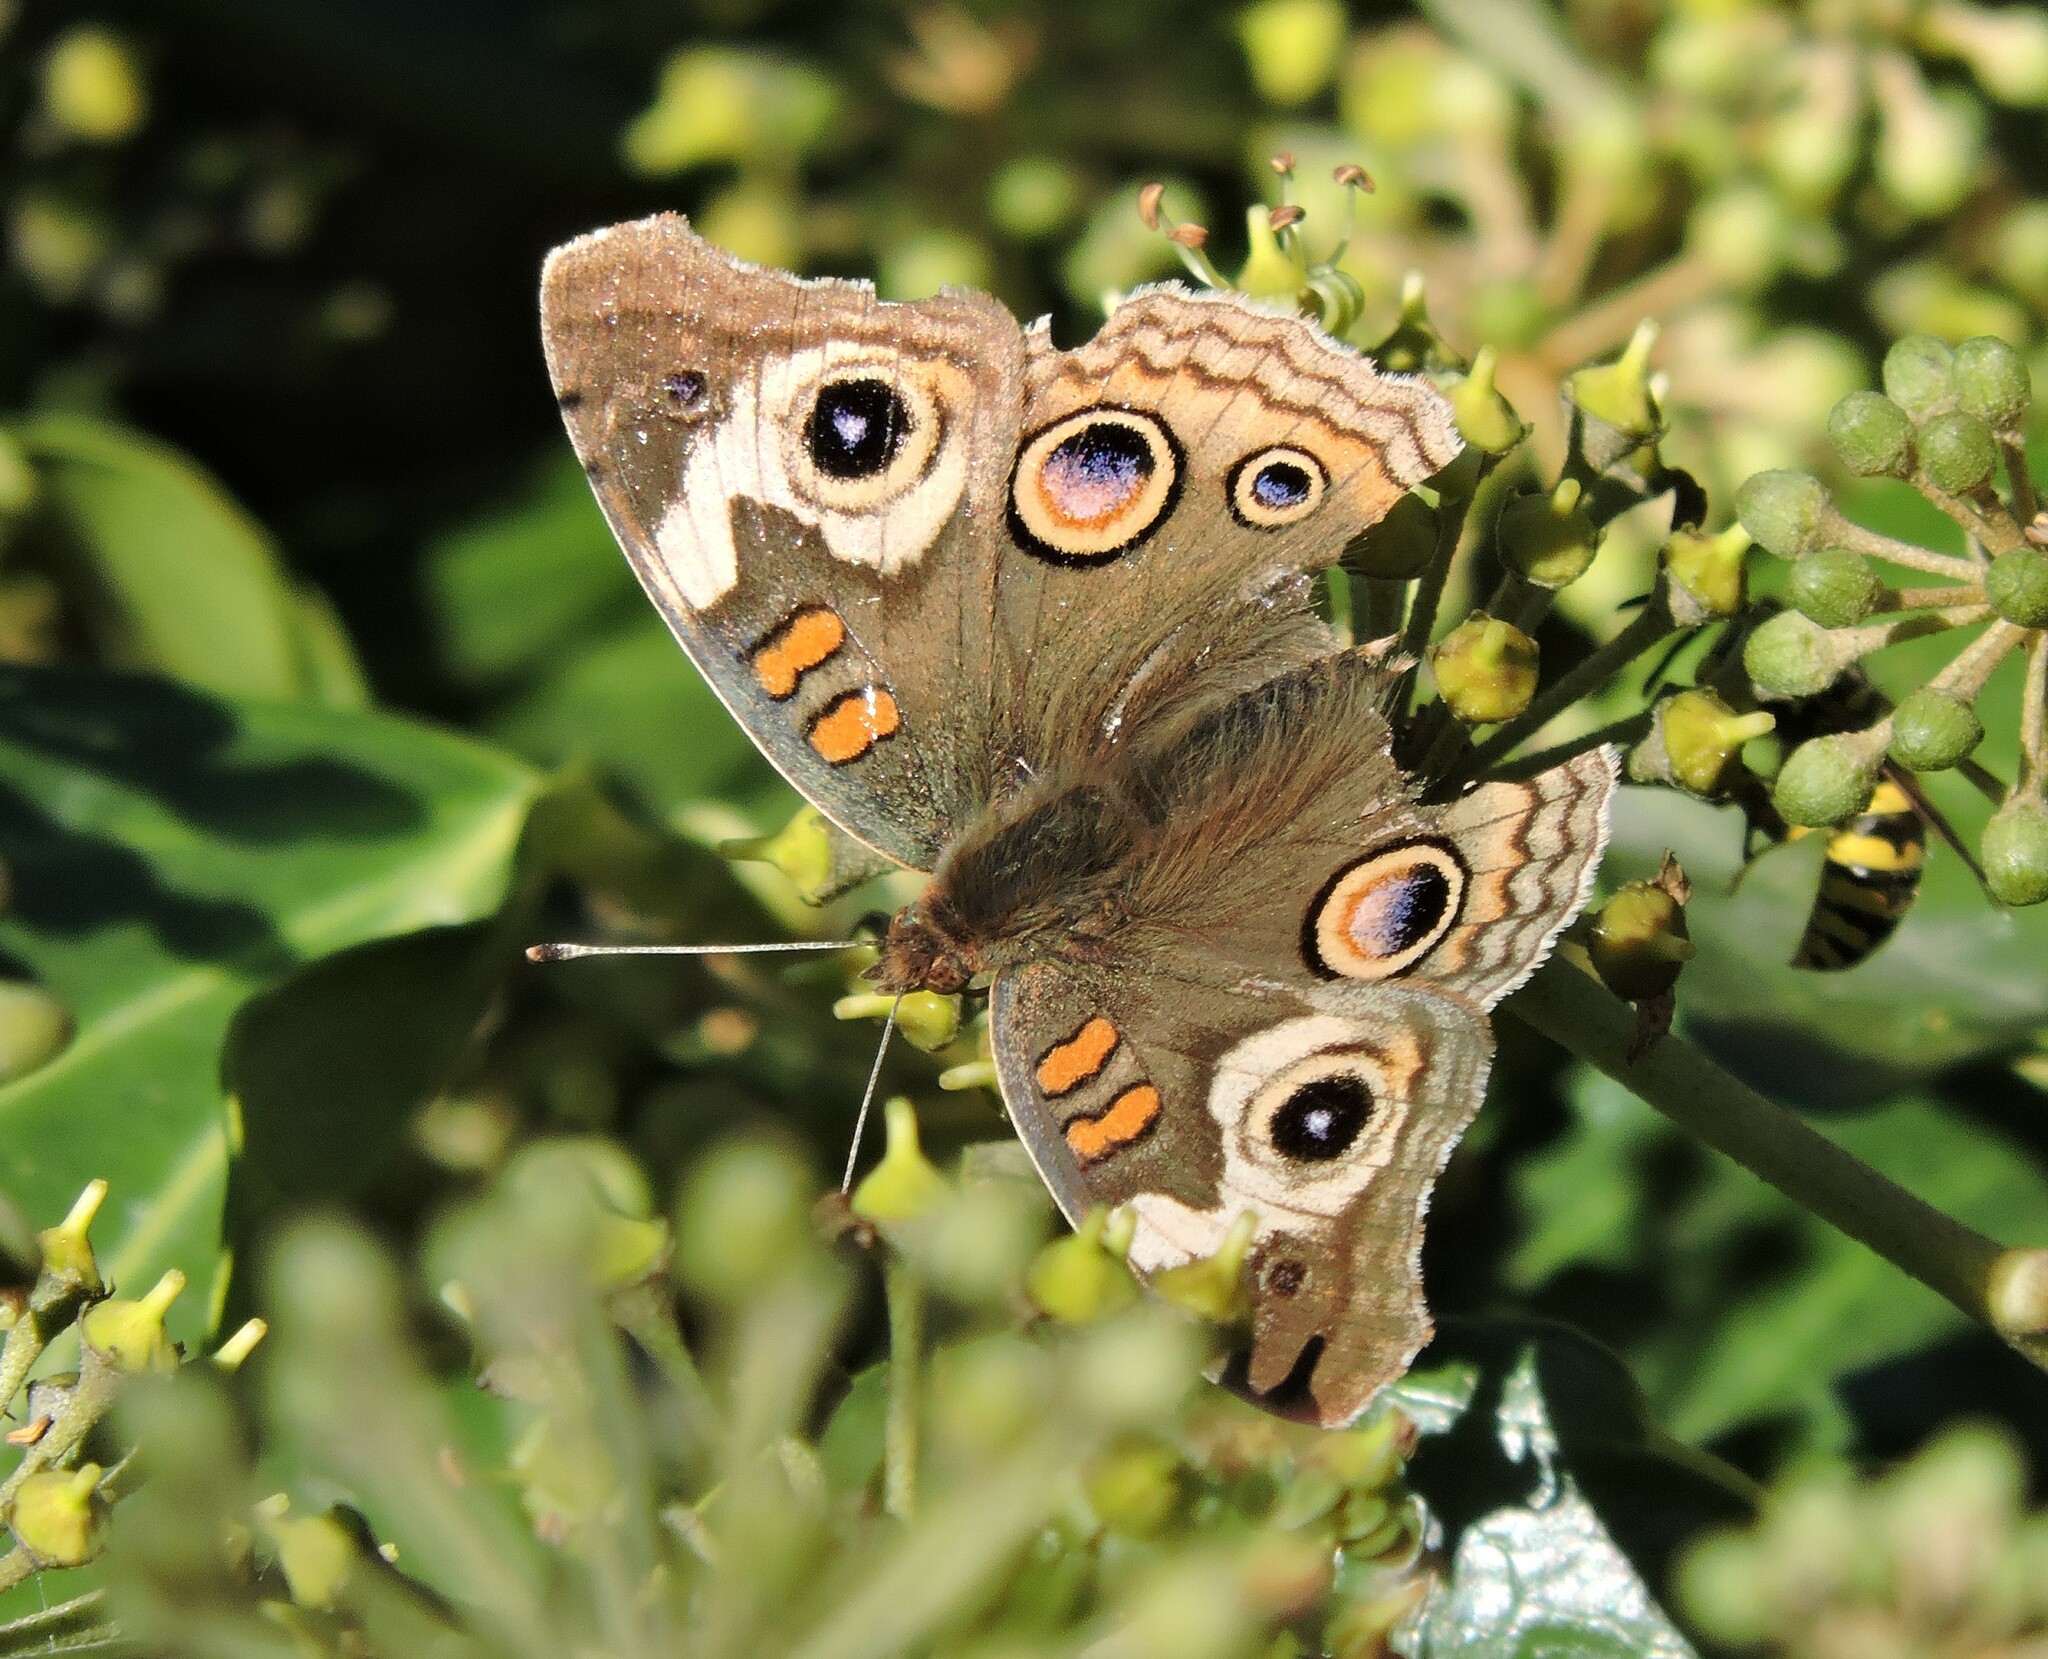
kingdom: Animalia
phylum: Arthropoda
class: Insecta
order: Lepidoptera
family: Nymphalidae
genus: Junonia
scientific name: Junonia grisea
